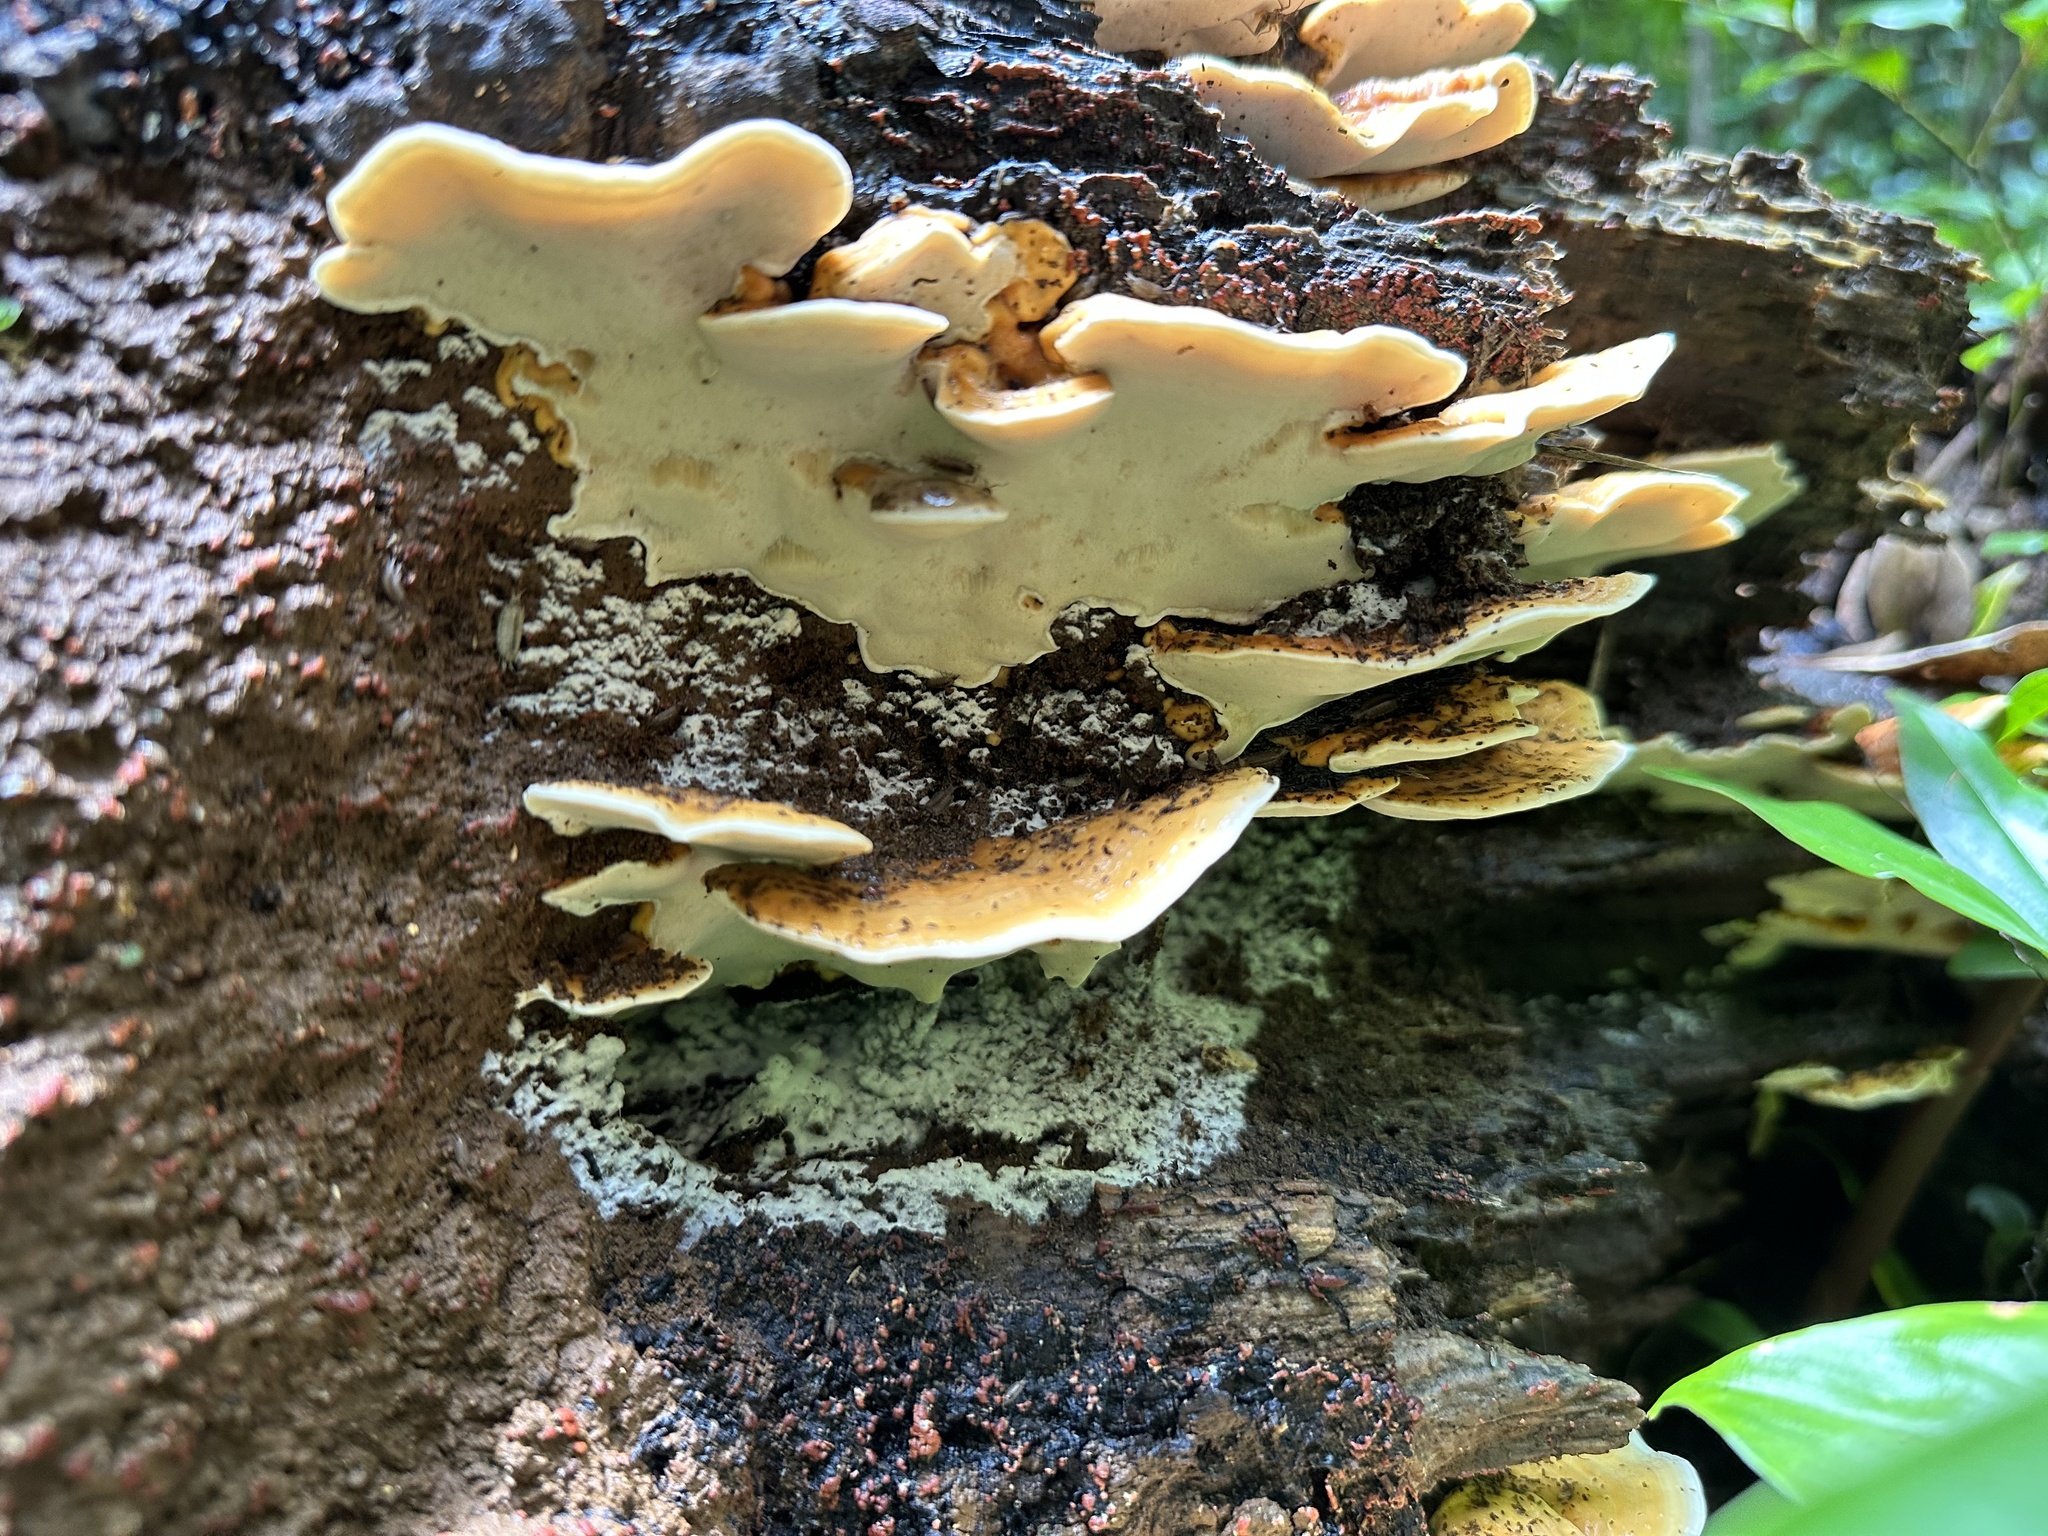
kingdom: Fungi
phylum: Basidiomycota
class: Agaricomycetes
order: Hymenochaetales
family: Oxyporaceae
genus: Oxyporus
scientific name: Oxyporus macroporus
